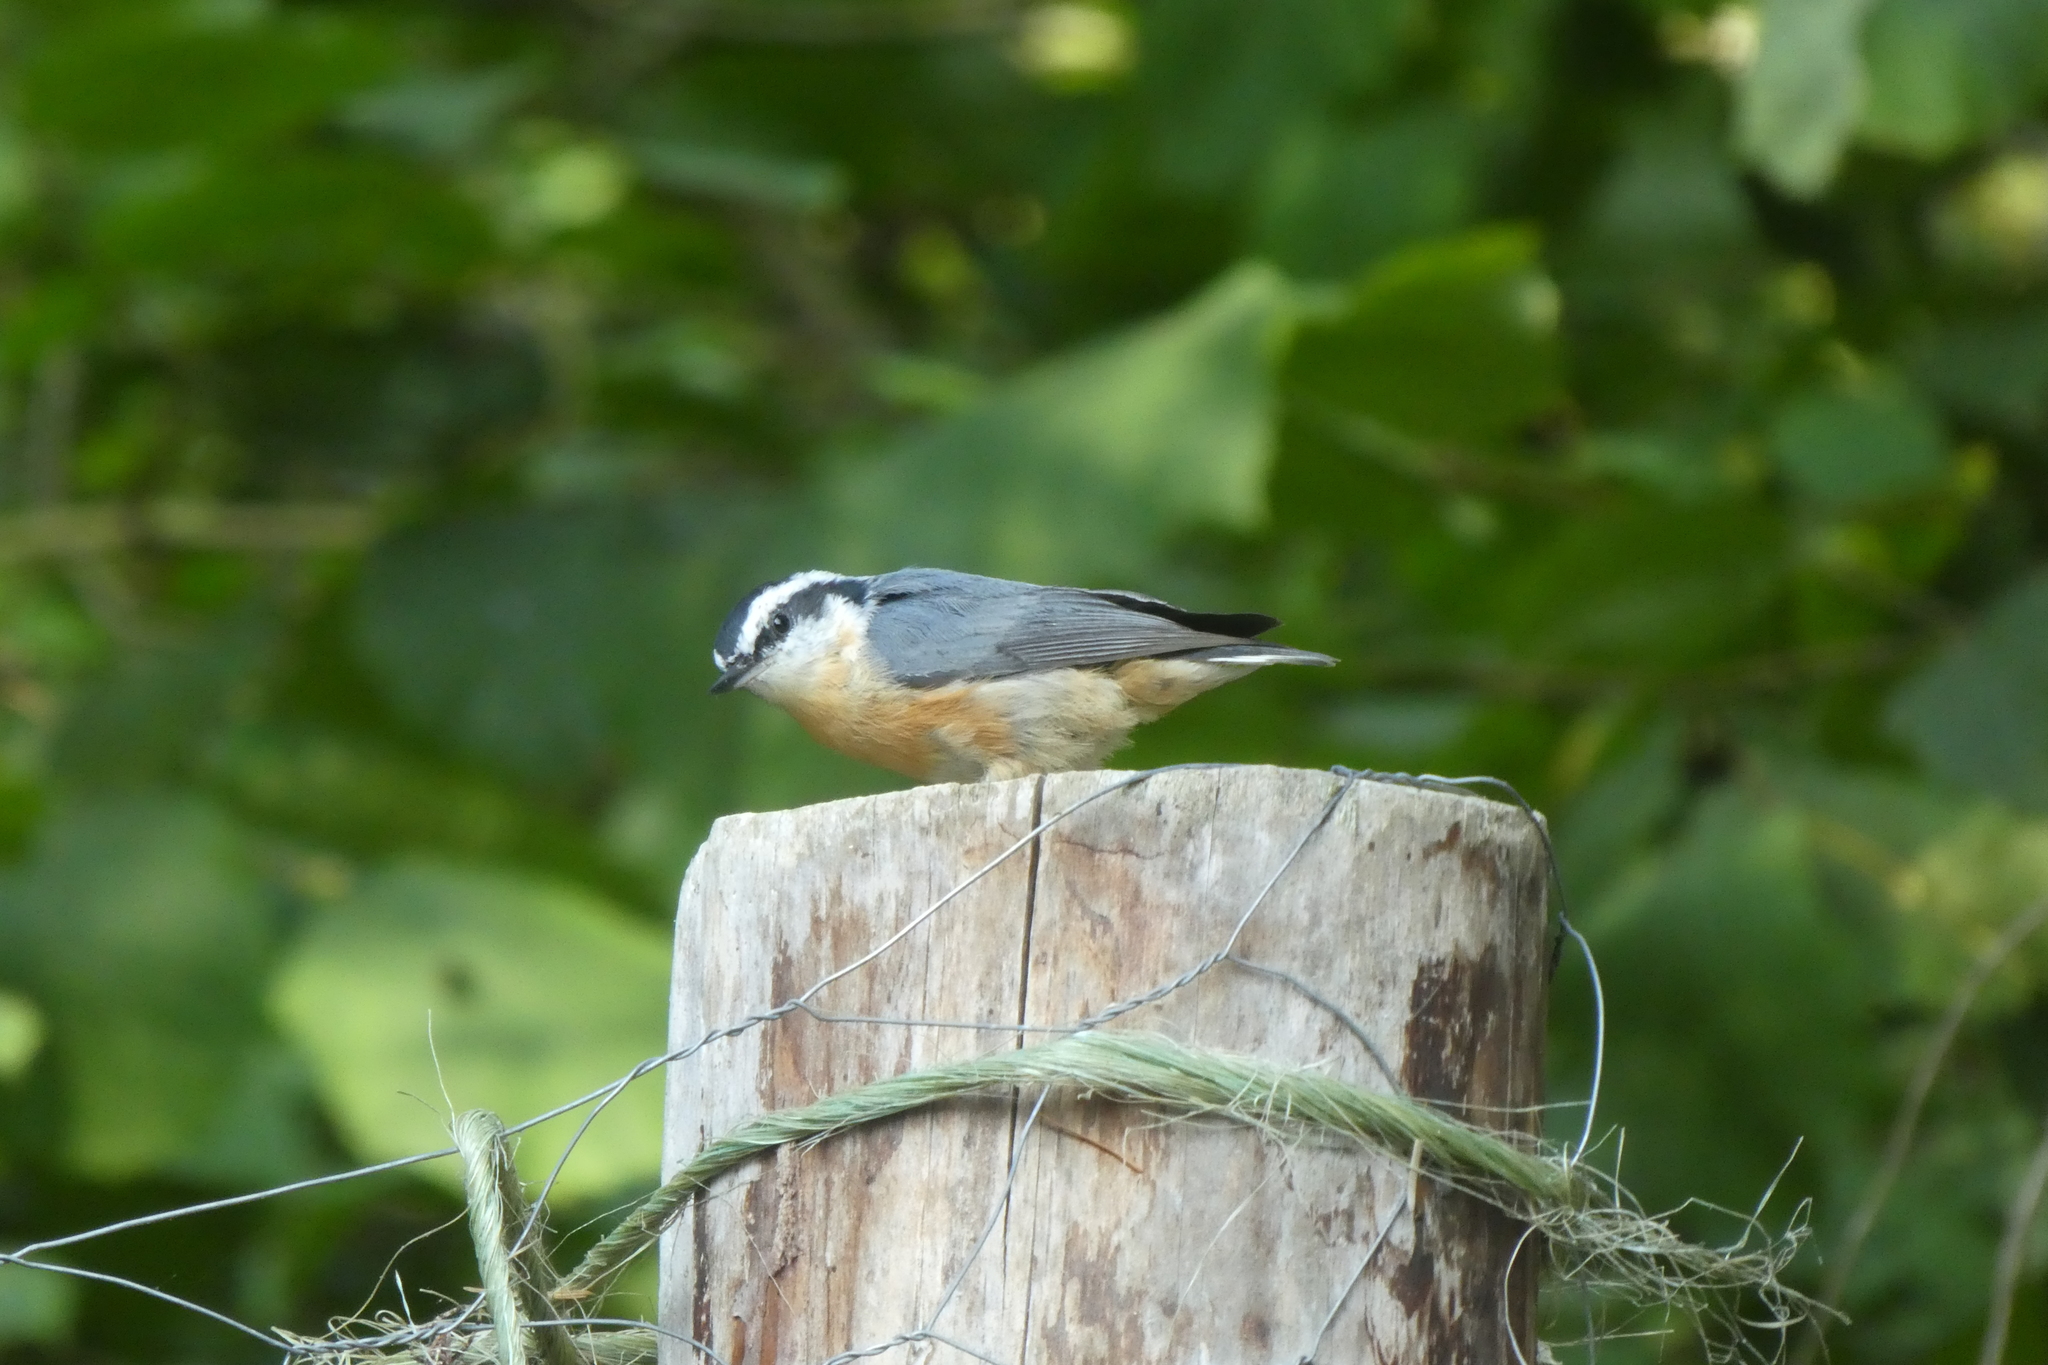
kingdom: Animalia
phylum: Chordata
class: Aves
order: Passeriformes
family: Sittidae
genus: Sitta
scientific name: Sitta canadensis
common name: Red-breasted nuthatch
